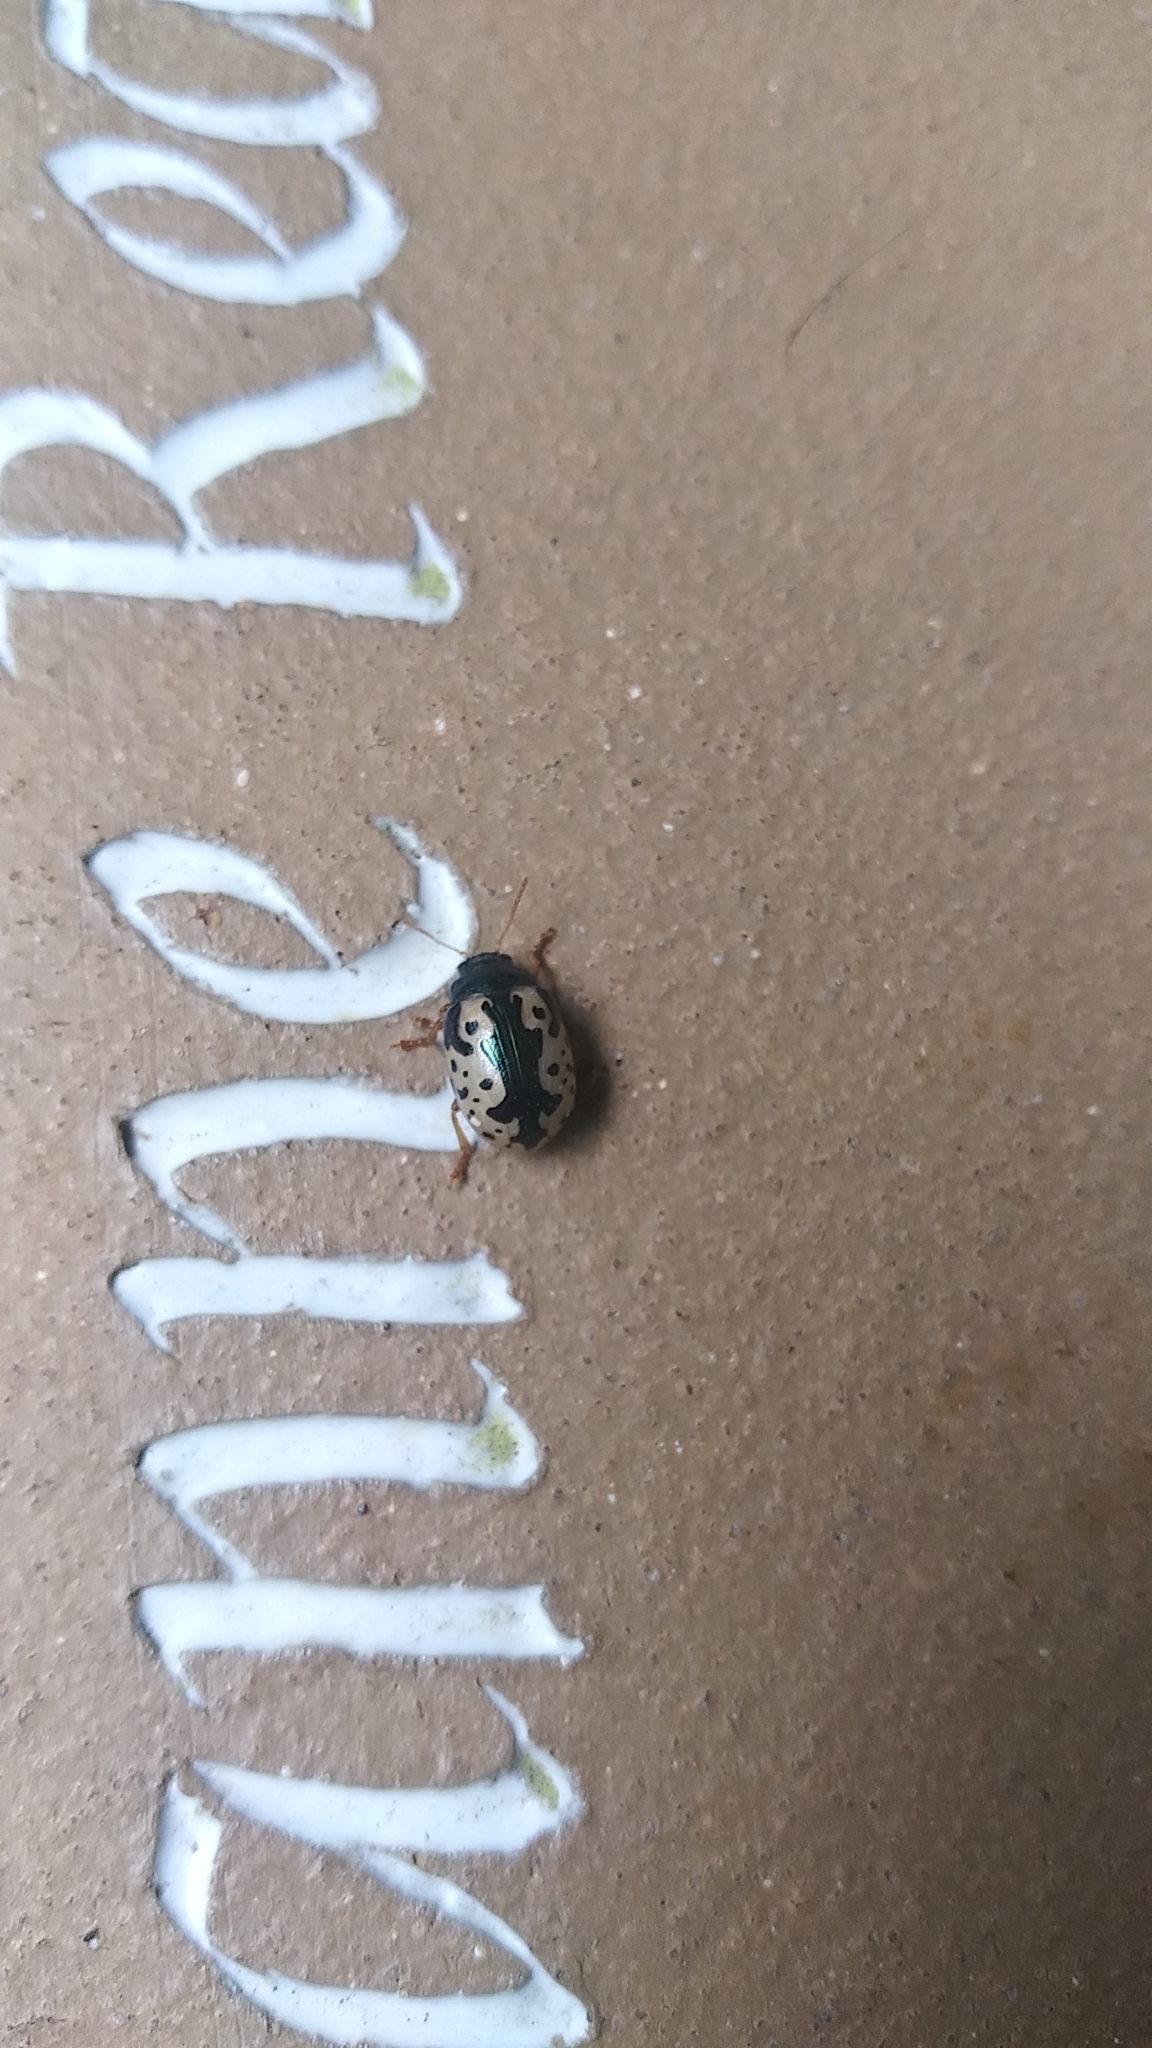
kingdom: Animalia
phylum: Arthropoda
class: Insecta
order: Coleoptera
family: Chrysomelidae
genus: Calligrapha
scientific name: Calligrapha scalaris
